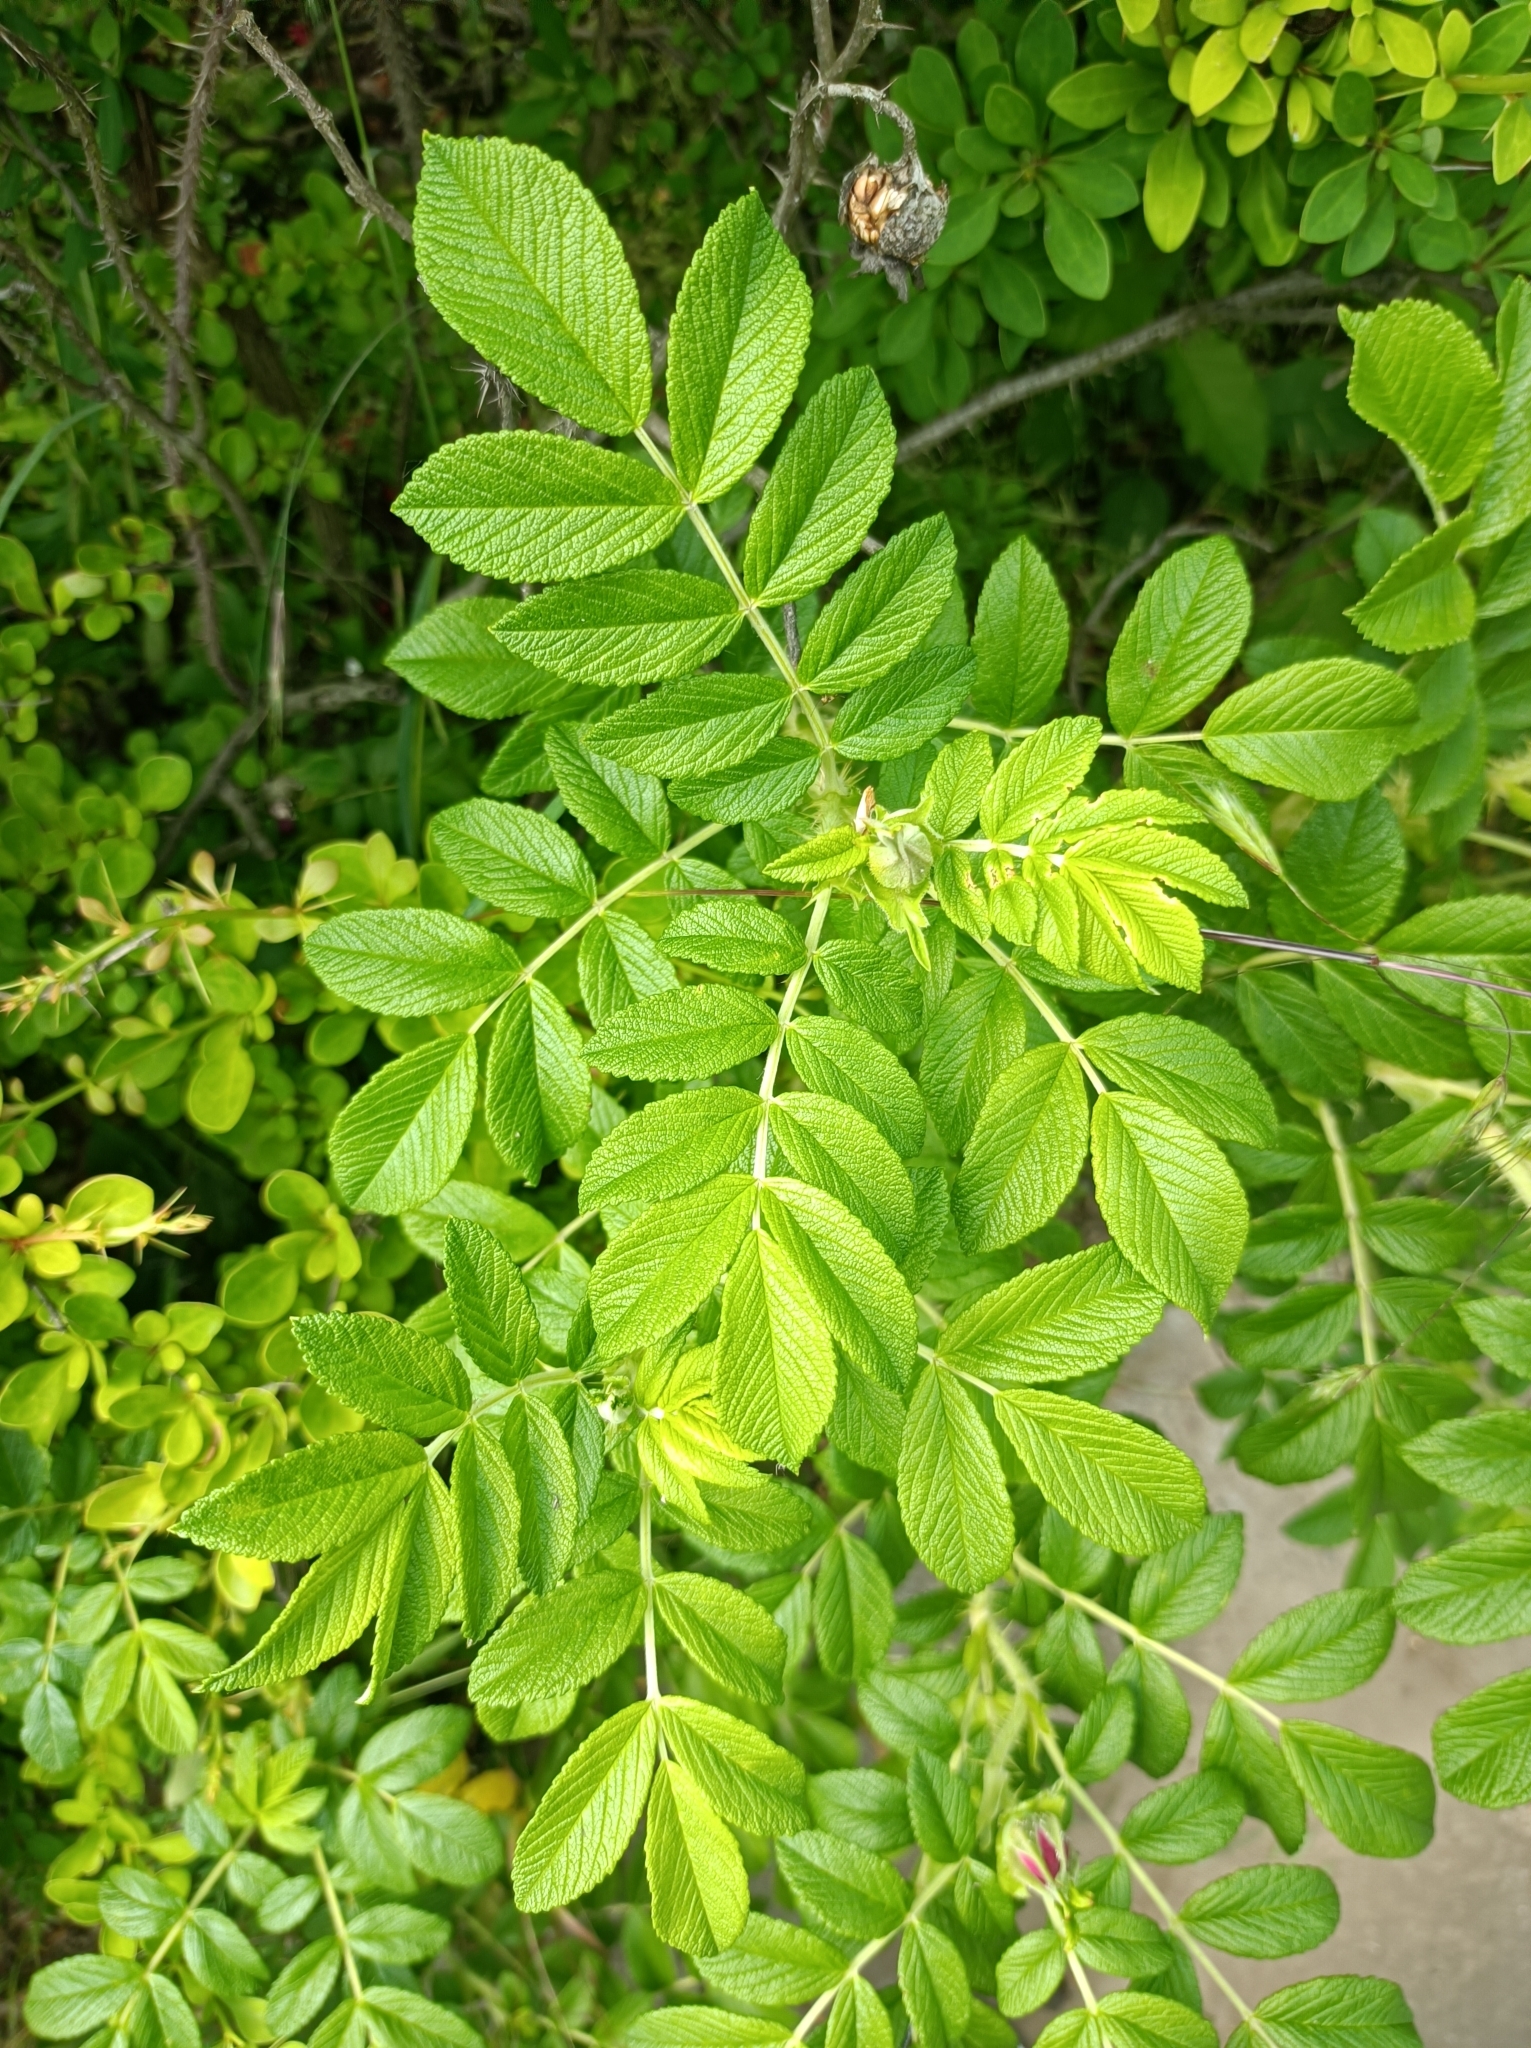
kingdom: Plantae
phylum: Tracheophyta
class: Magnoliopsida
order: Rosales
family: Rosaceae
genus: Rosa
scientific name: Rosa rugosa
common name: Japanese rose
